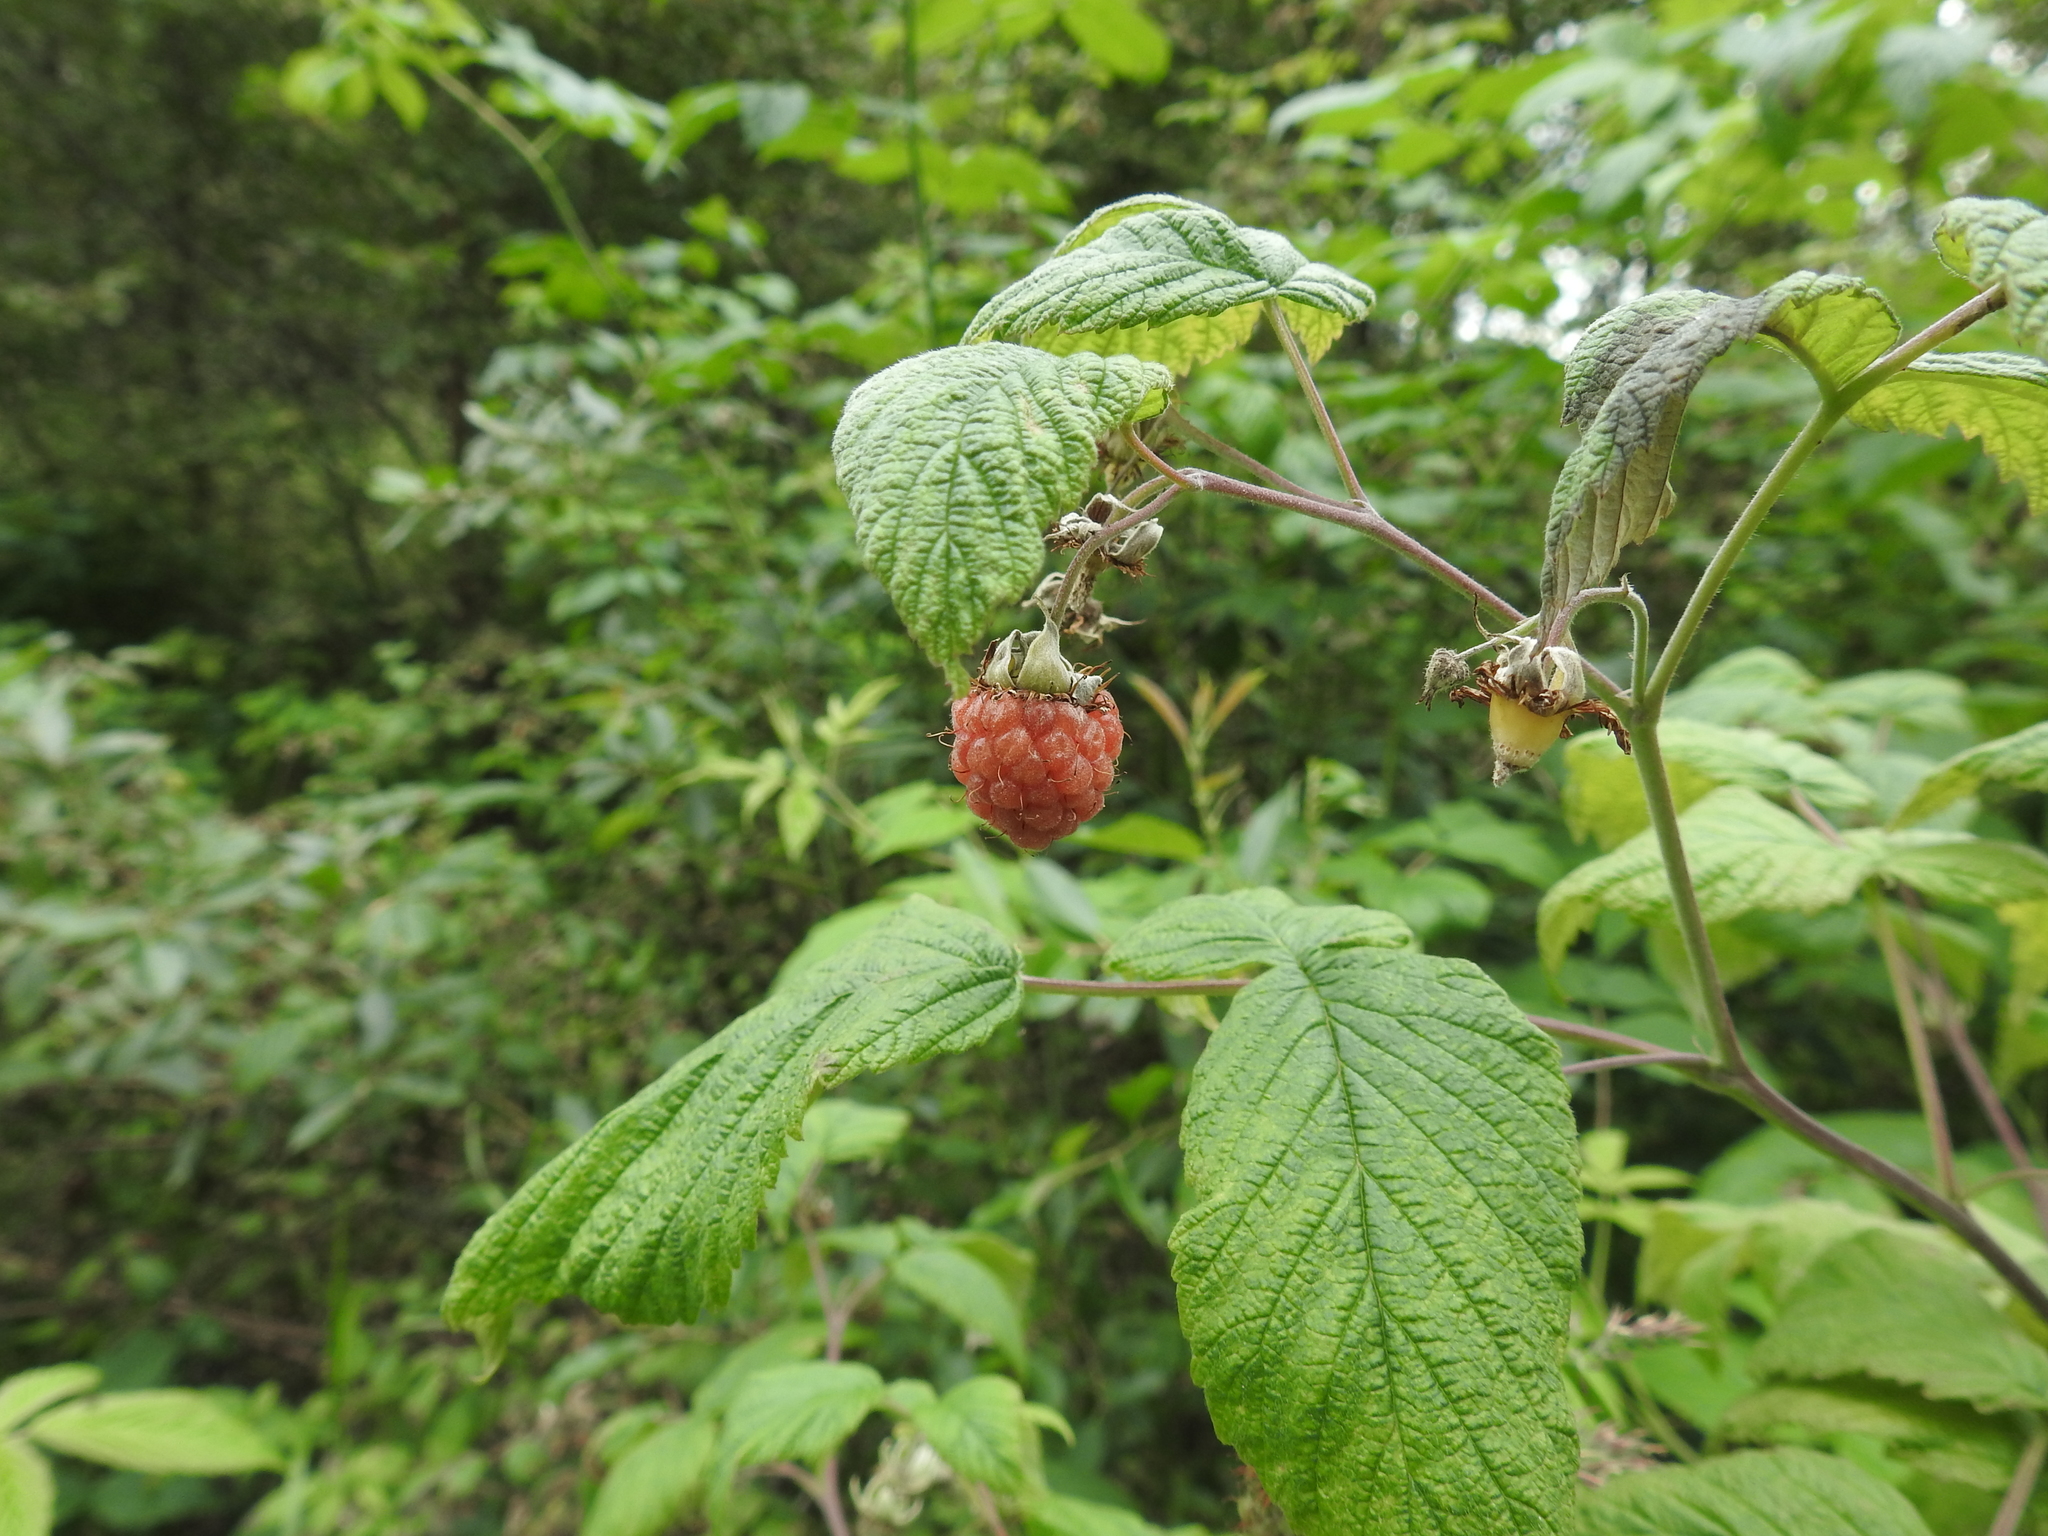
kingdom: Plantae
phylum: Tracheophyta
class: Magnoliopsida
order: Rosales
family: Rosaceae
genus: Rubus
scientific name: Rubus idaeus
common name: Raspberry
